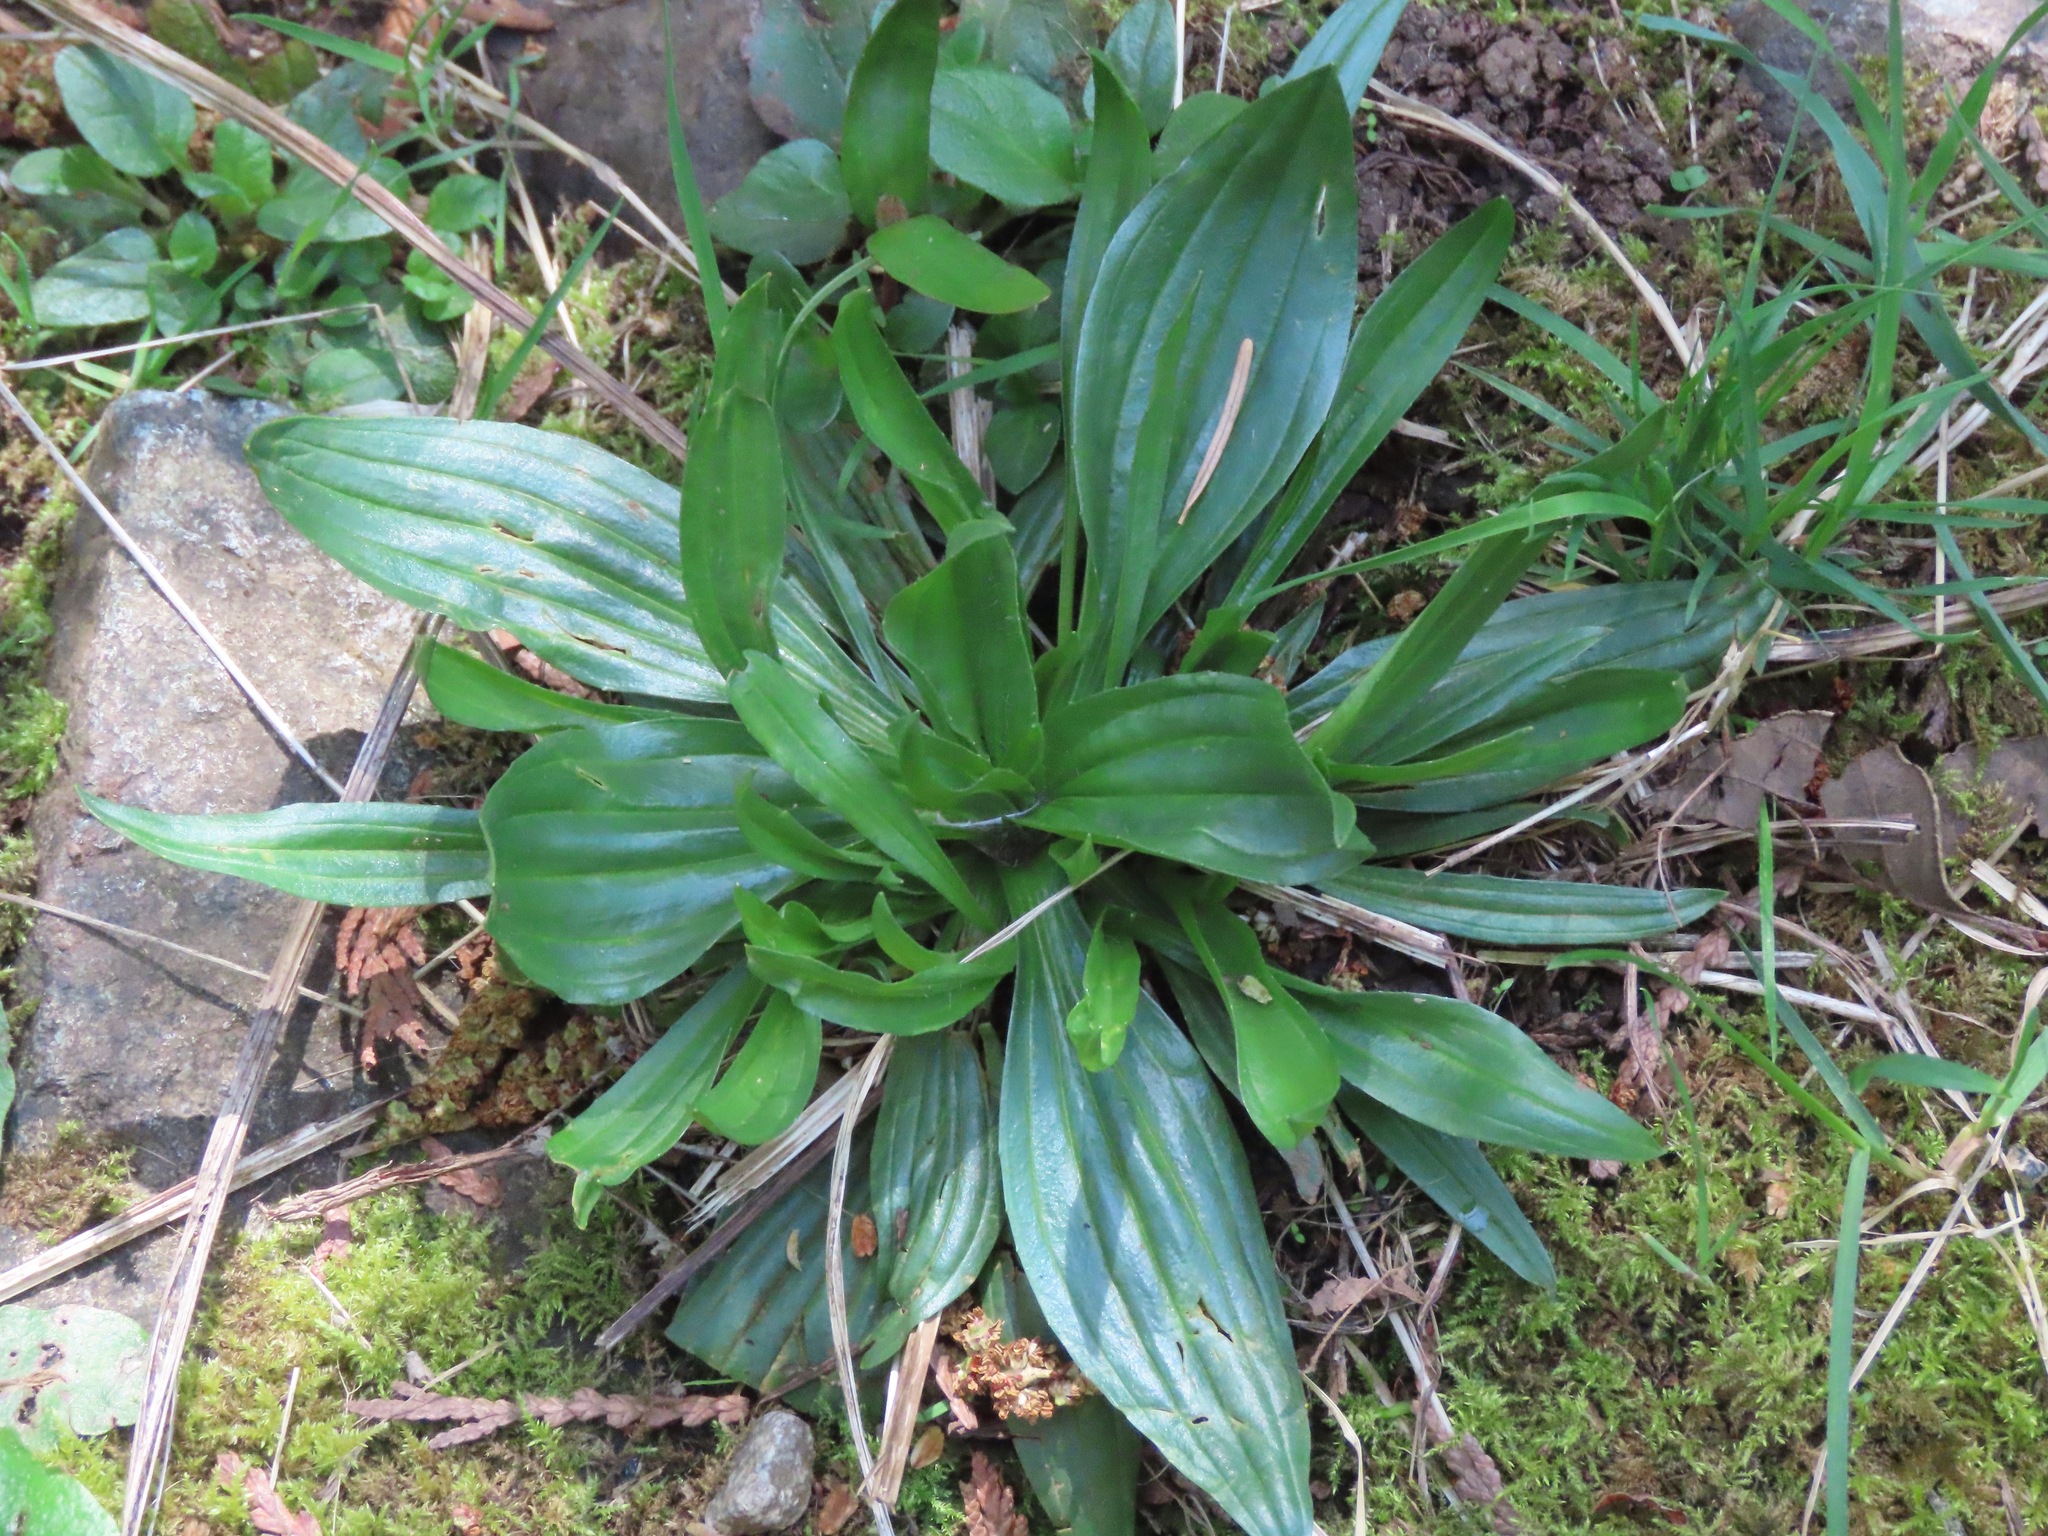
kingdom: Plantae
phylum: Tracheophyta
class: Magnoliopsida
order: Lamiales
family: Plantaginaceae
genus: Plantago
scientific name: Plantago lanceolata
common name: Ribwort plantain
